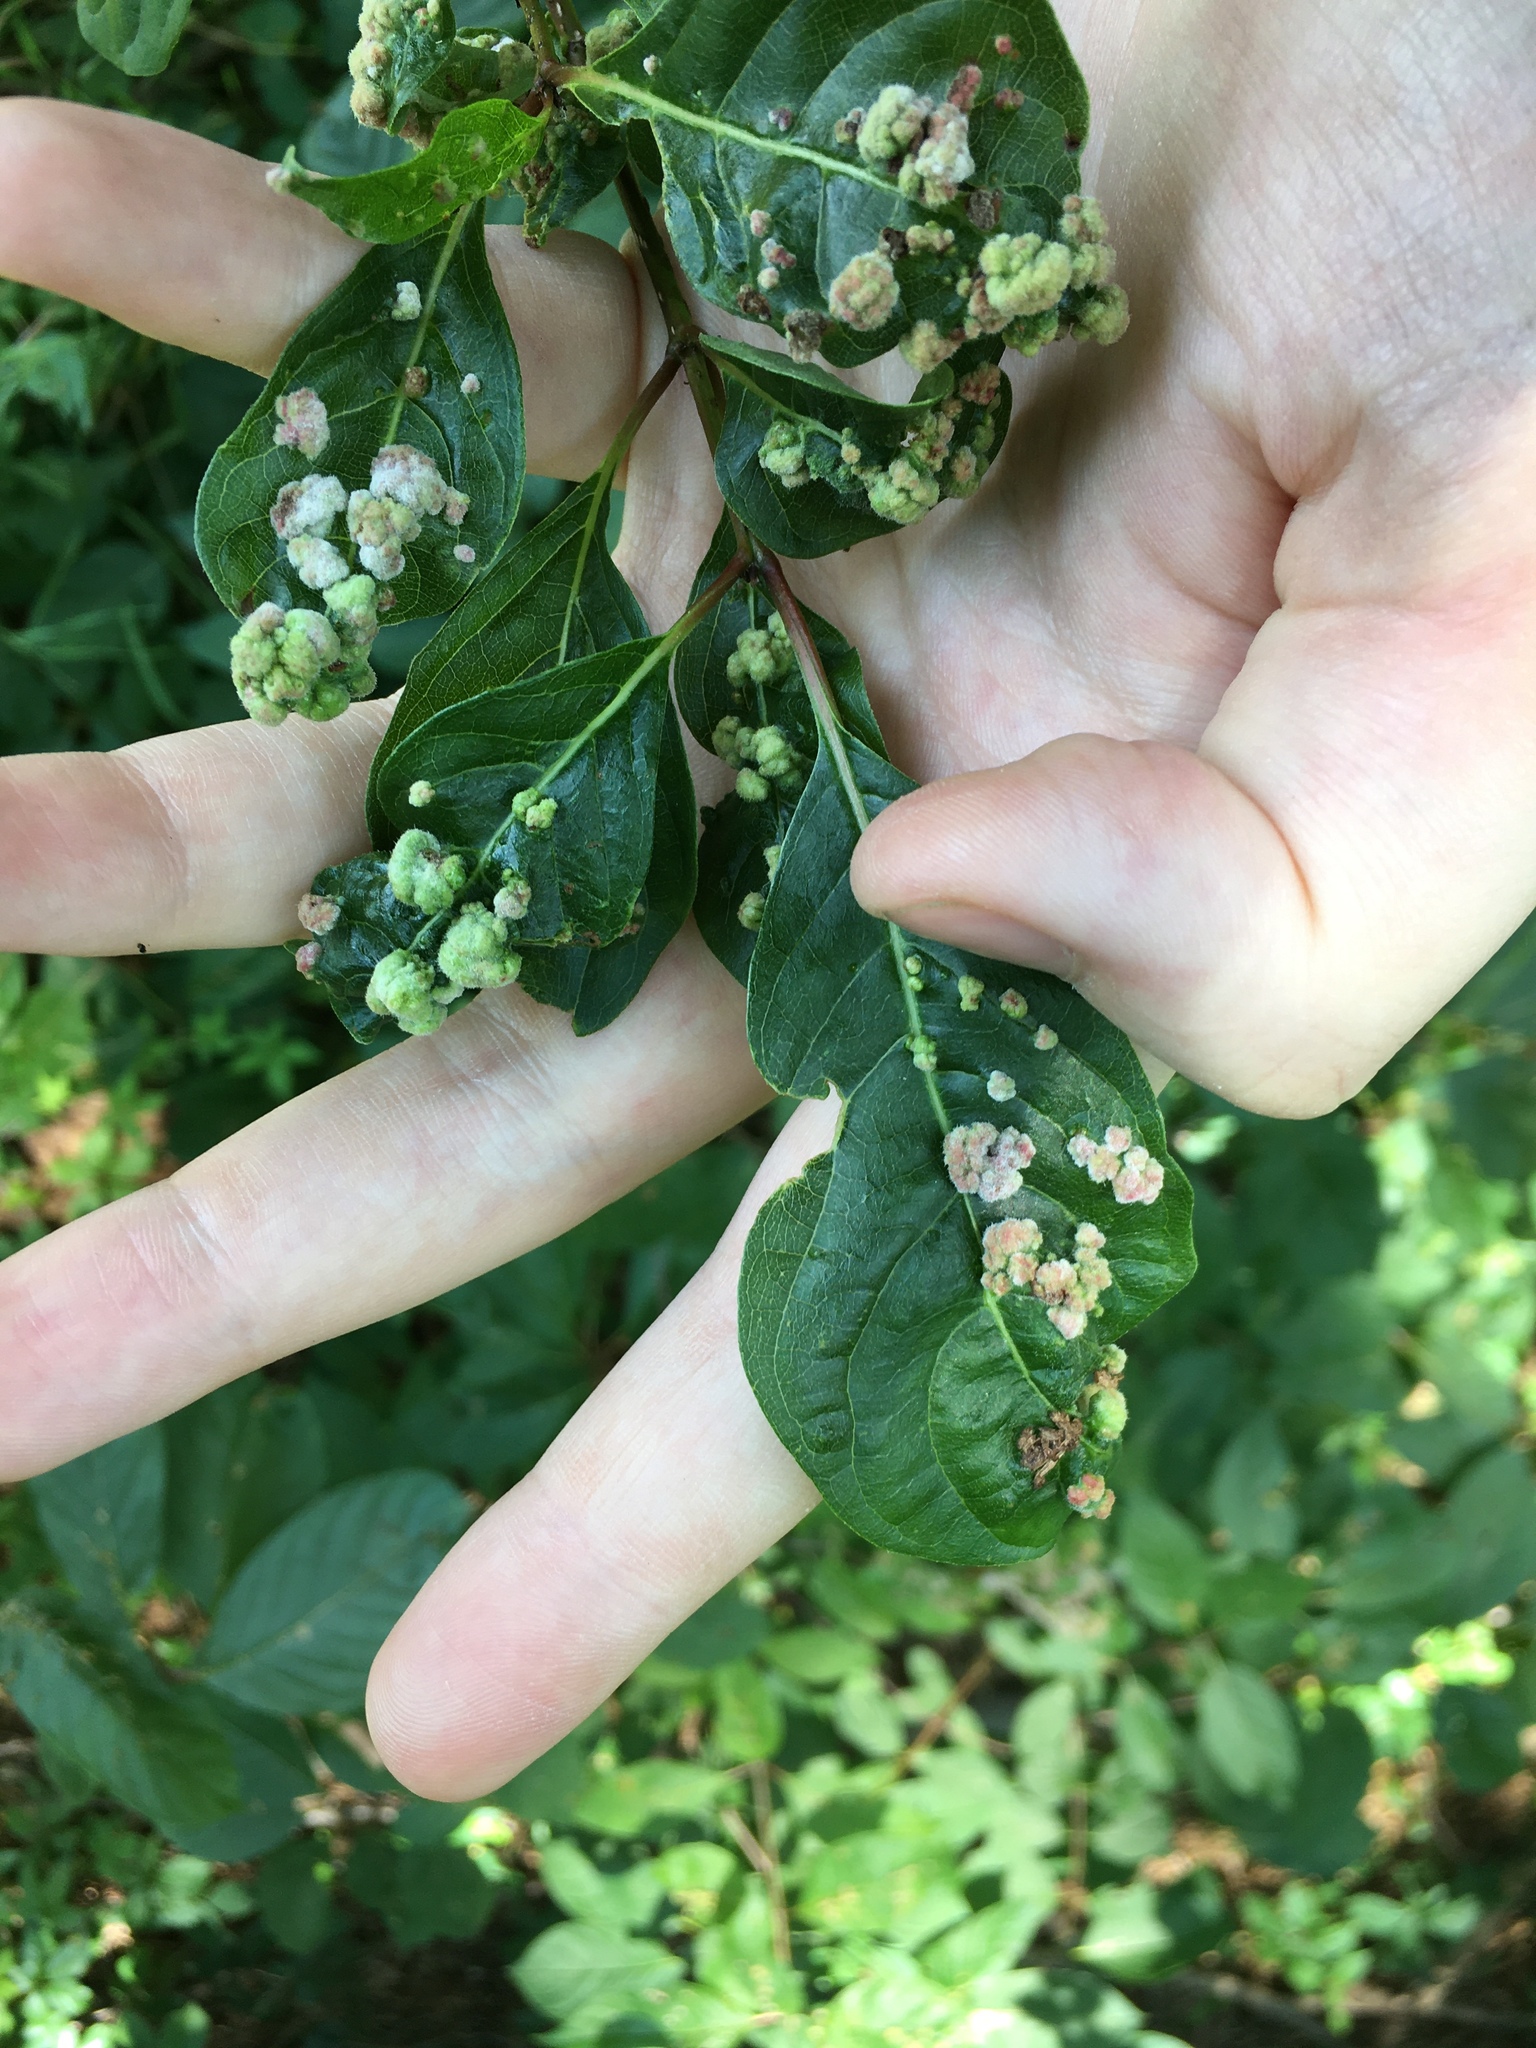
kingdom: Animalia
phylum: Arthropoda
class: Arachnida
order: Trombidiformes
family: Eriophyidae
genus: Aceria
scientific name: Aceria
